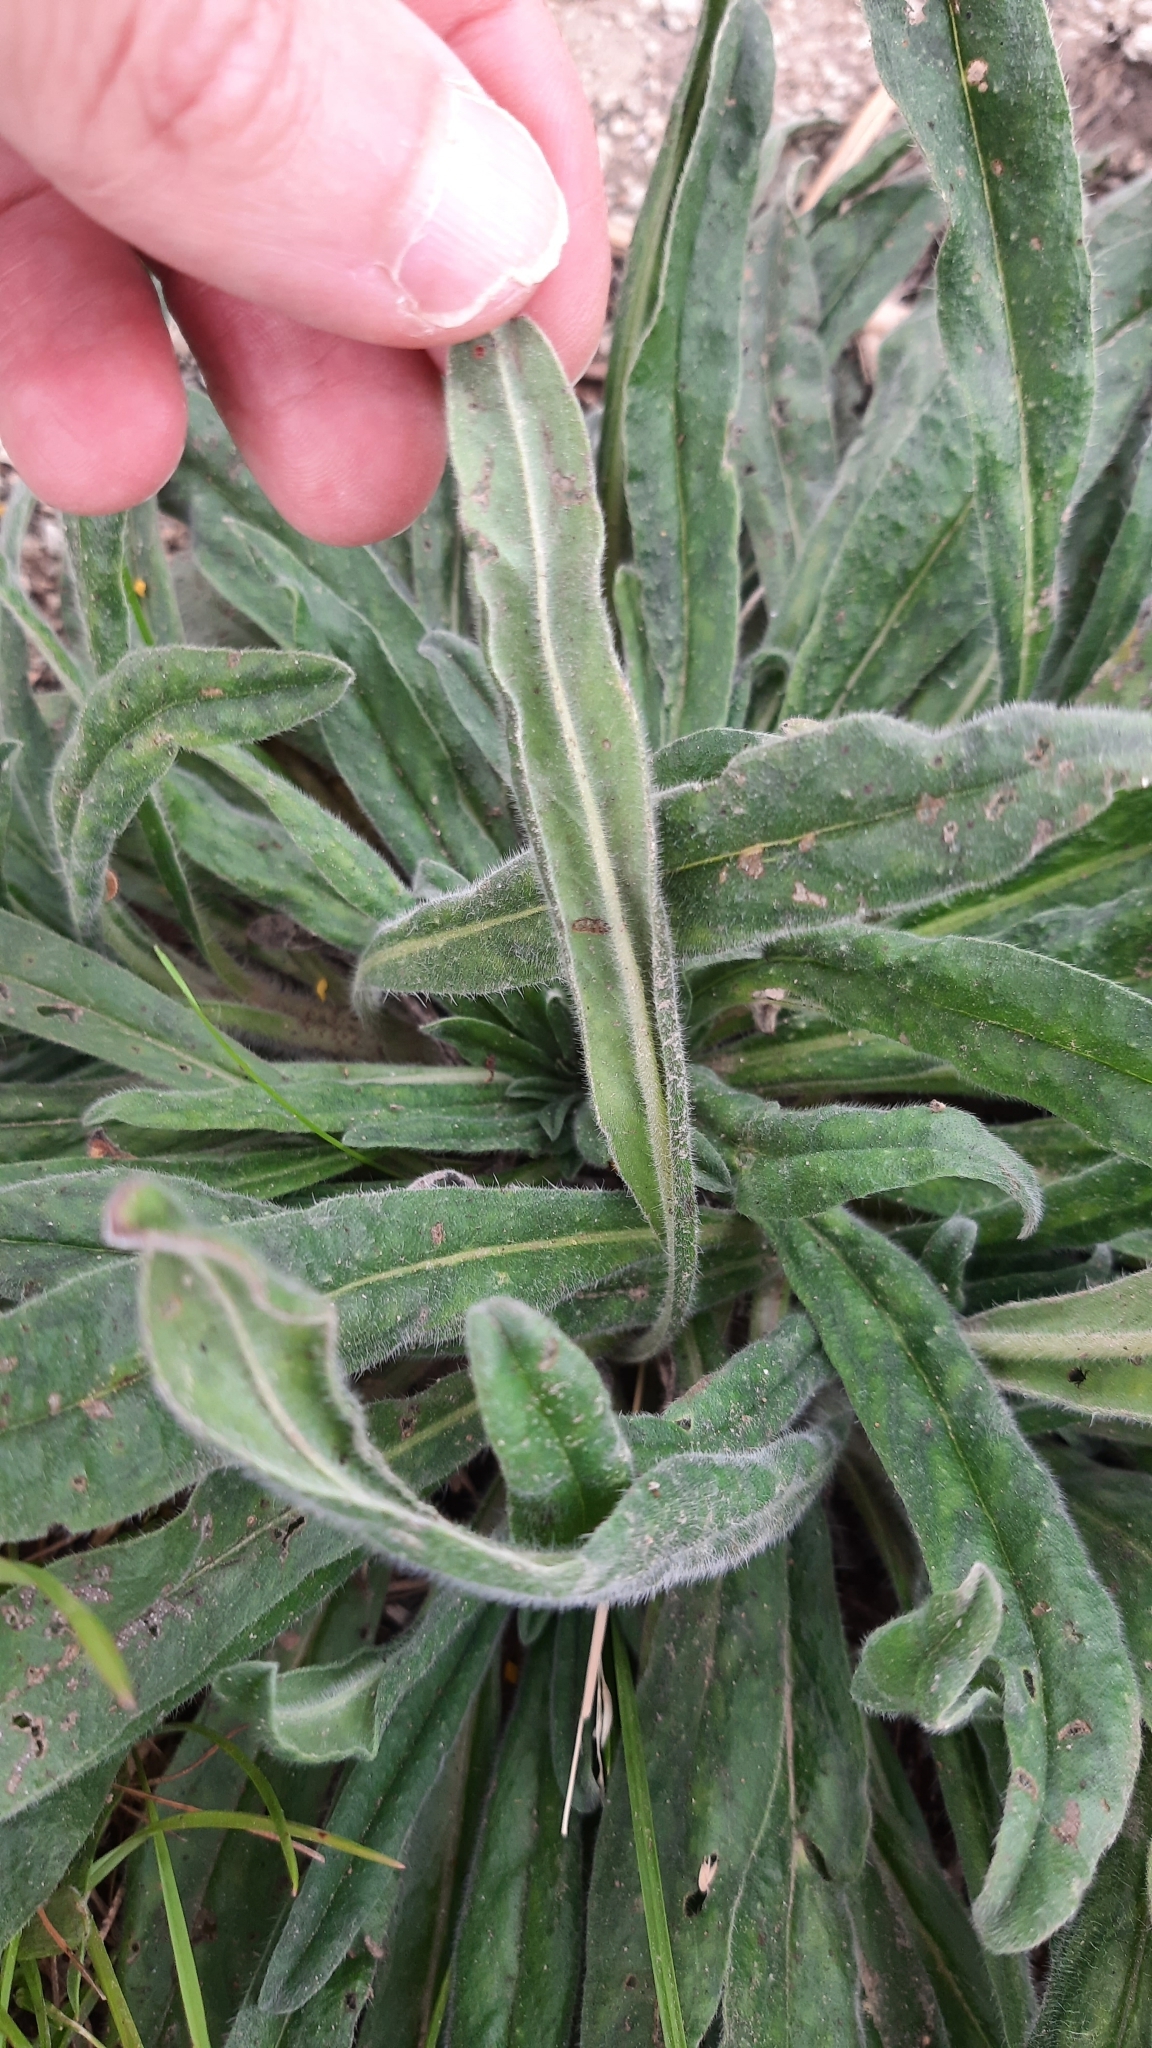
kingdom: Plantae
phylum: Tracheophyta
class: Magnoliopsida
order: Boraginales
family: Boraginaceae
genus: Echium
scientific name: Echium vulgare
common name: Common viper's bugloss
